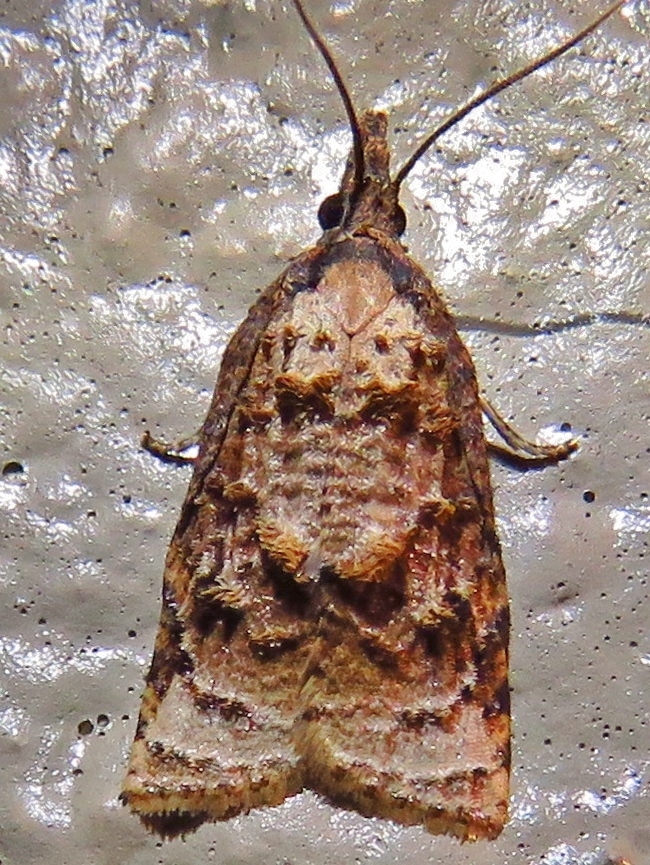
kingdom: Animalia
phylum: Arthropoda
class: Insecta
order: Lepidoptera
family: Tortricidae
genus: Platynota
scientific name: Platynota rostrana
